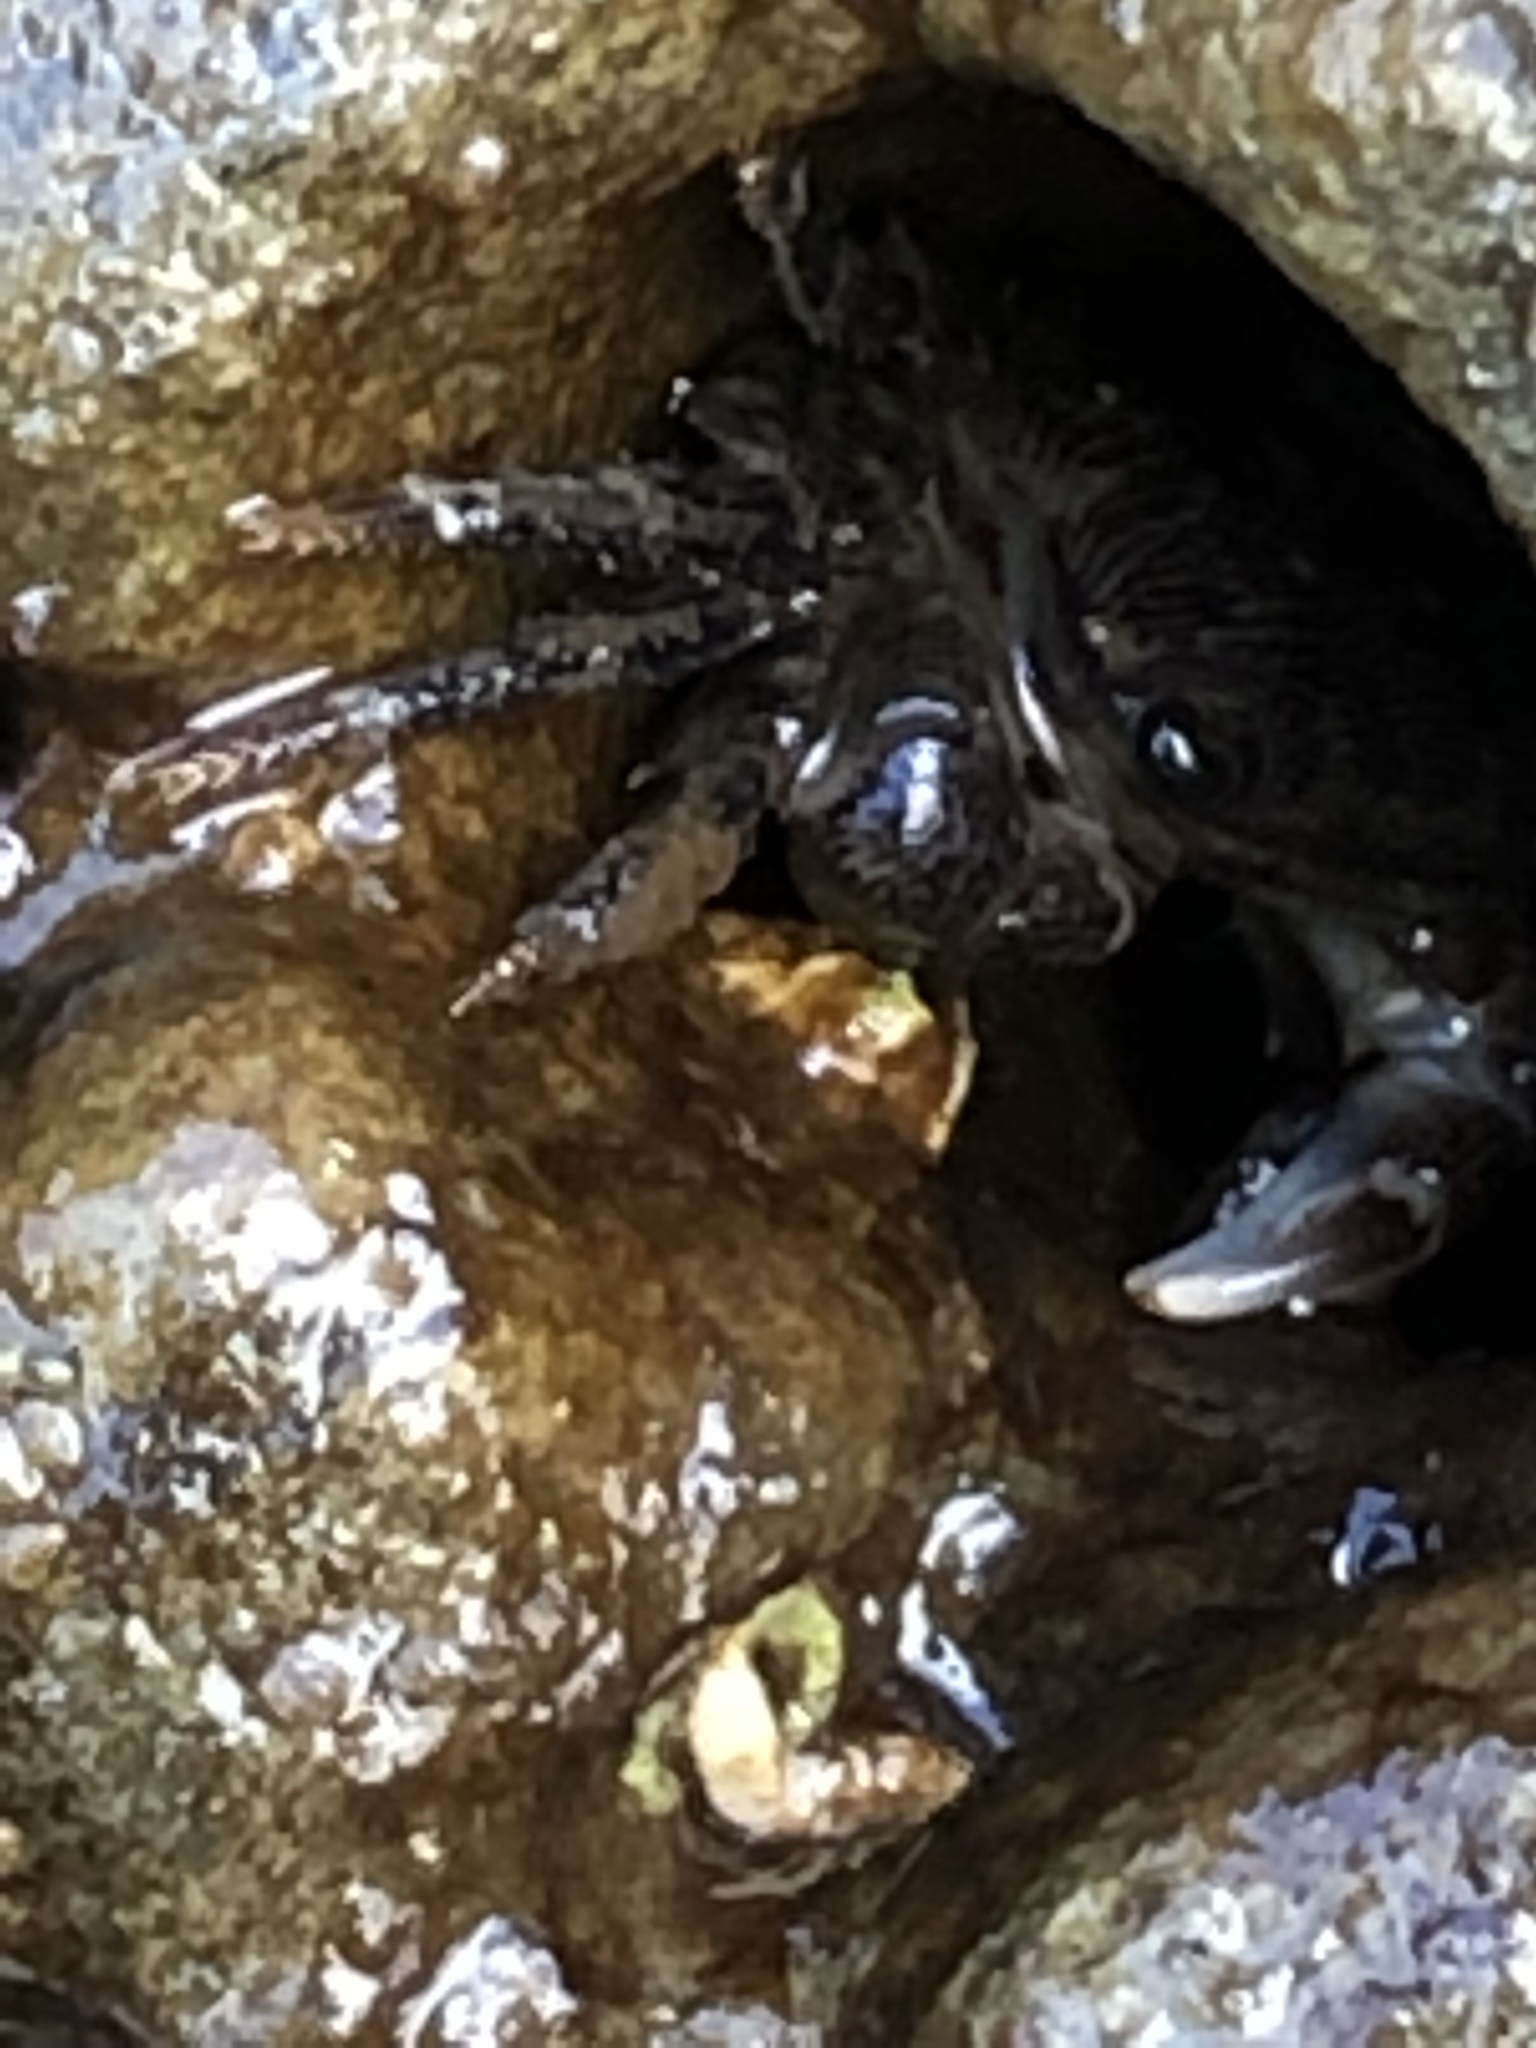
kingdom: Animalia
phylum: Arthropoda
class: Malacostraca
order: Decapoda
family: Grapsidae
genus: Pachygrapsus
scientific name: Pachygrapsus crassipes
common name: Striped shore crab
